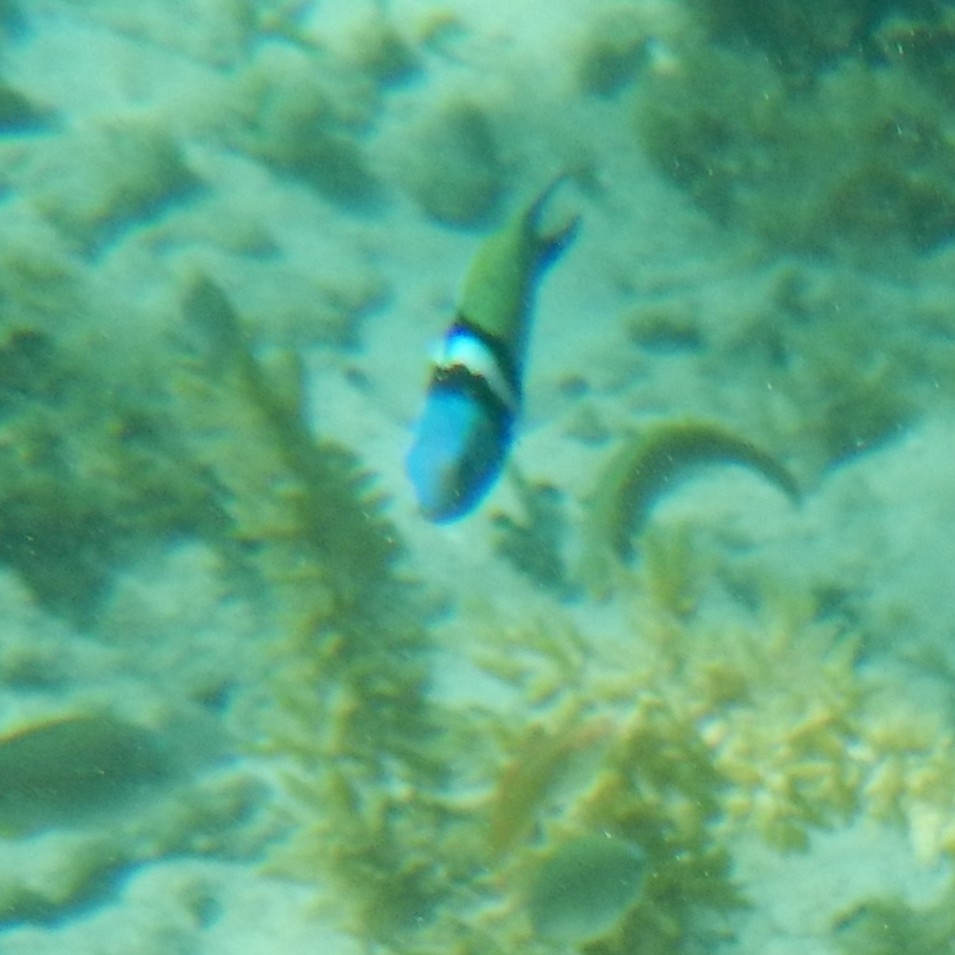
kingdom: Animalia
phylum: Chordata
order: Perciformes
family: Labridae
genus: Thalassoma
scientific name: Thalassoma bifasciatum
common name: Bluehead wrasse
